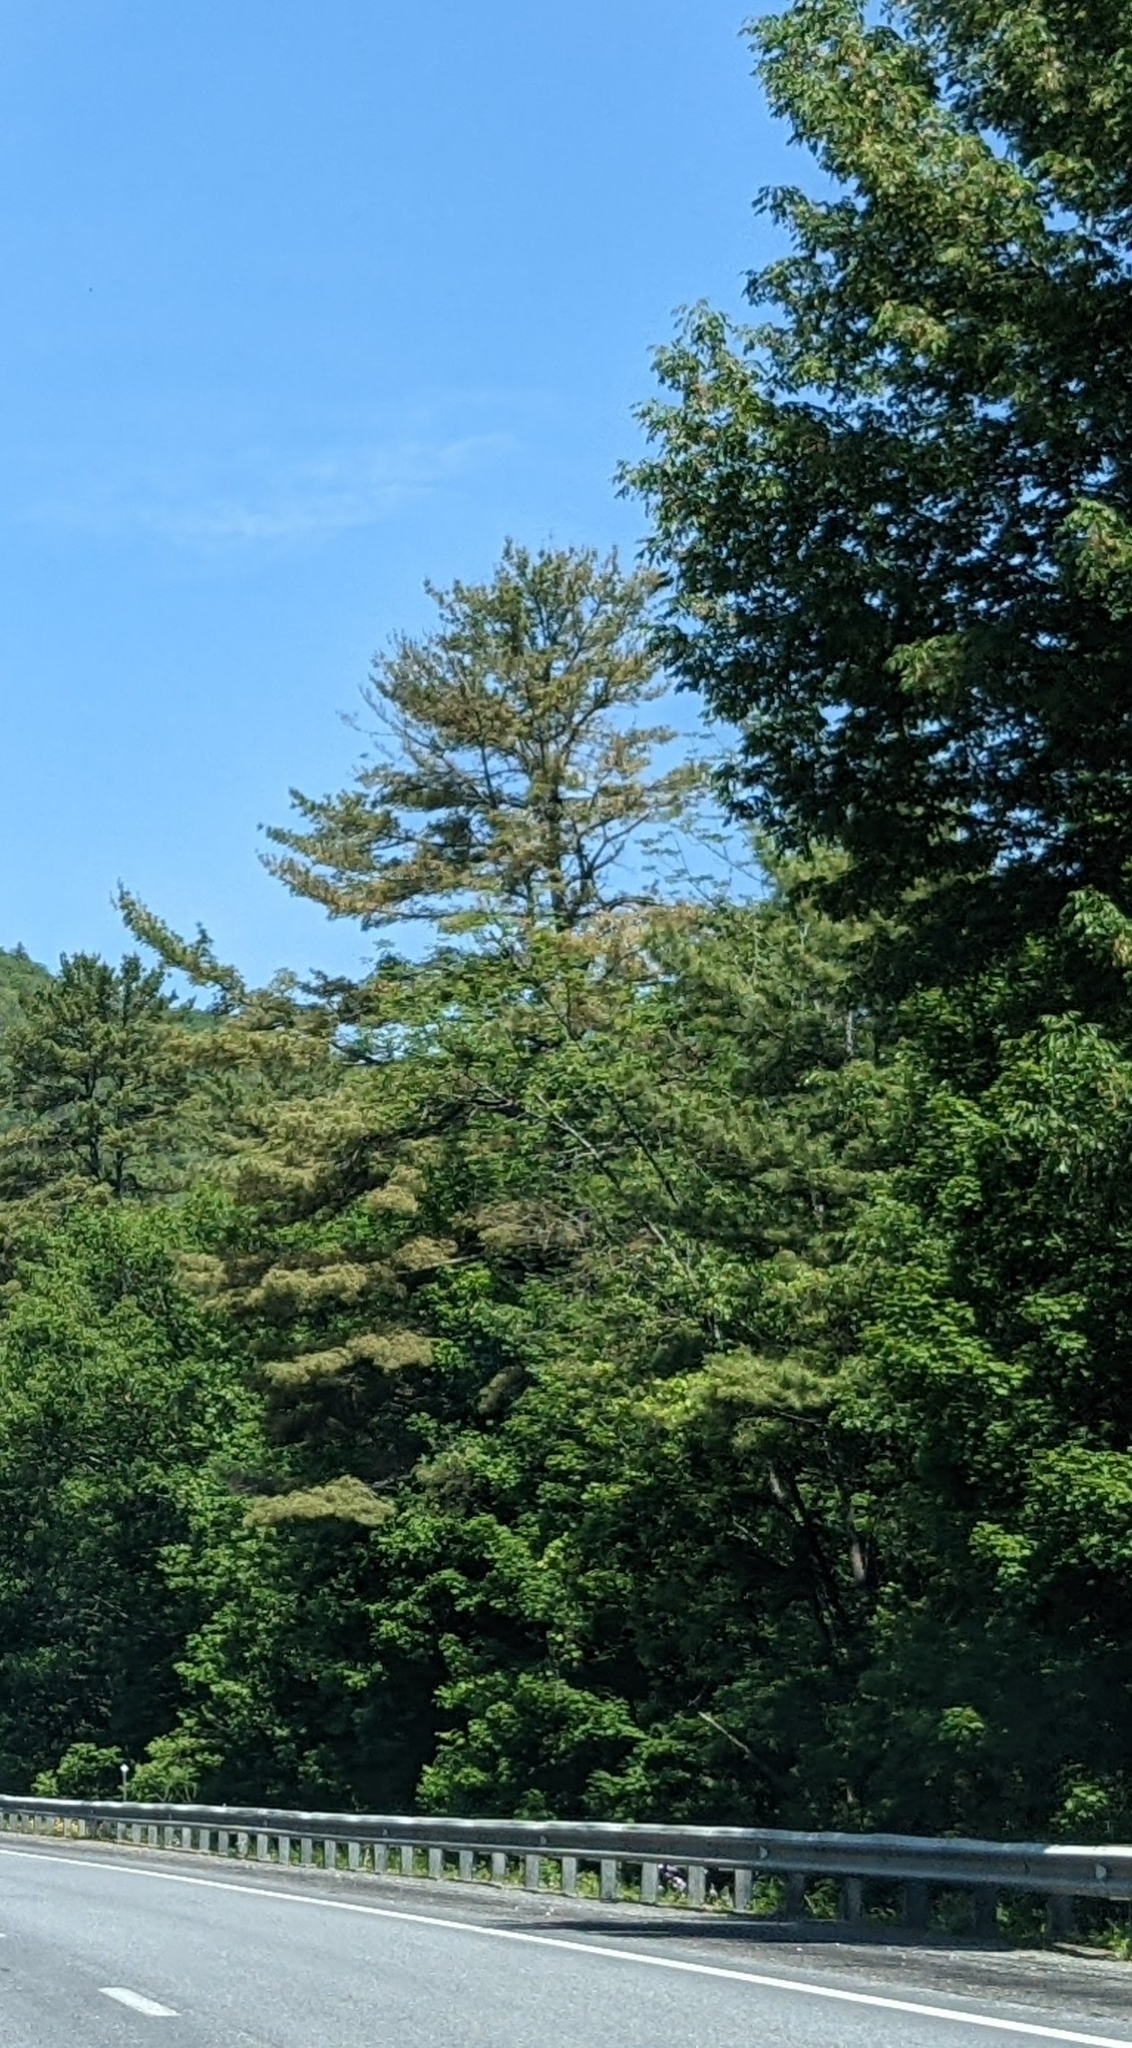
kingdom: Plantae
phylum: Tracheophyta
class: Pinopsida
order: Pinales
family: Pinaceae
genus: Pinus
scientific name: Pinus strobus
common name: Weymouth pine
